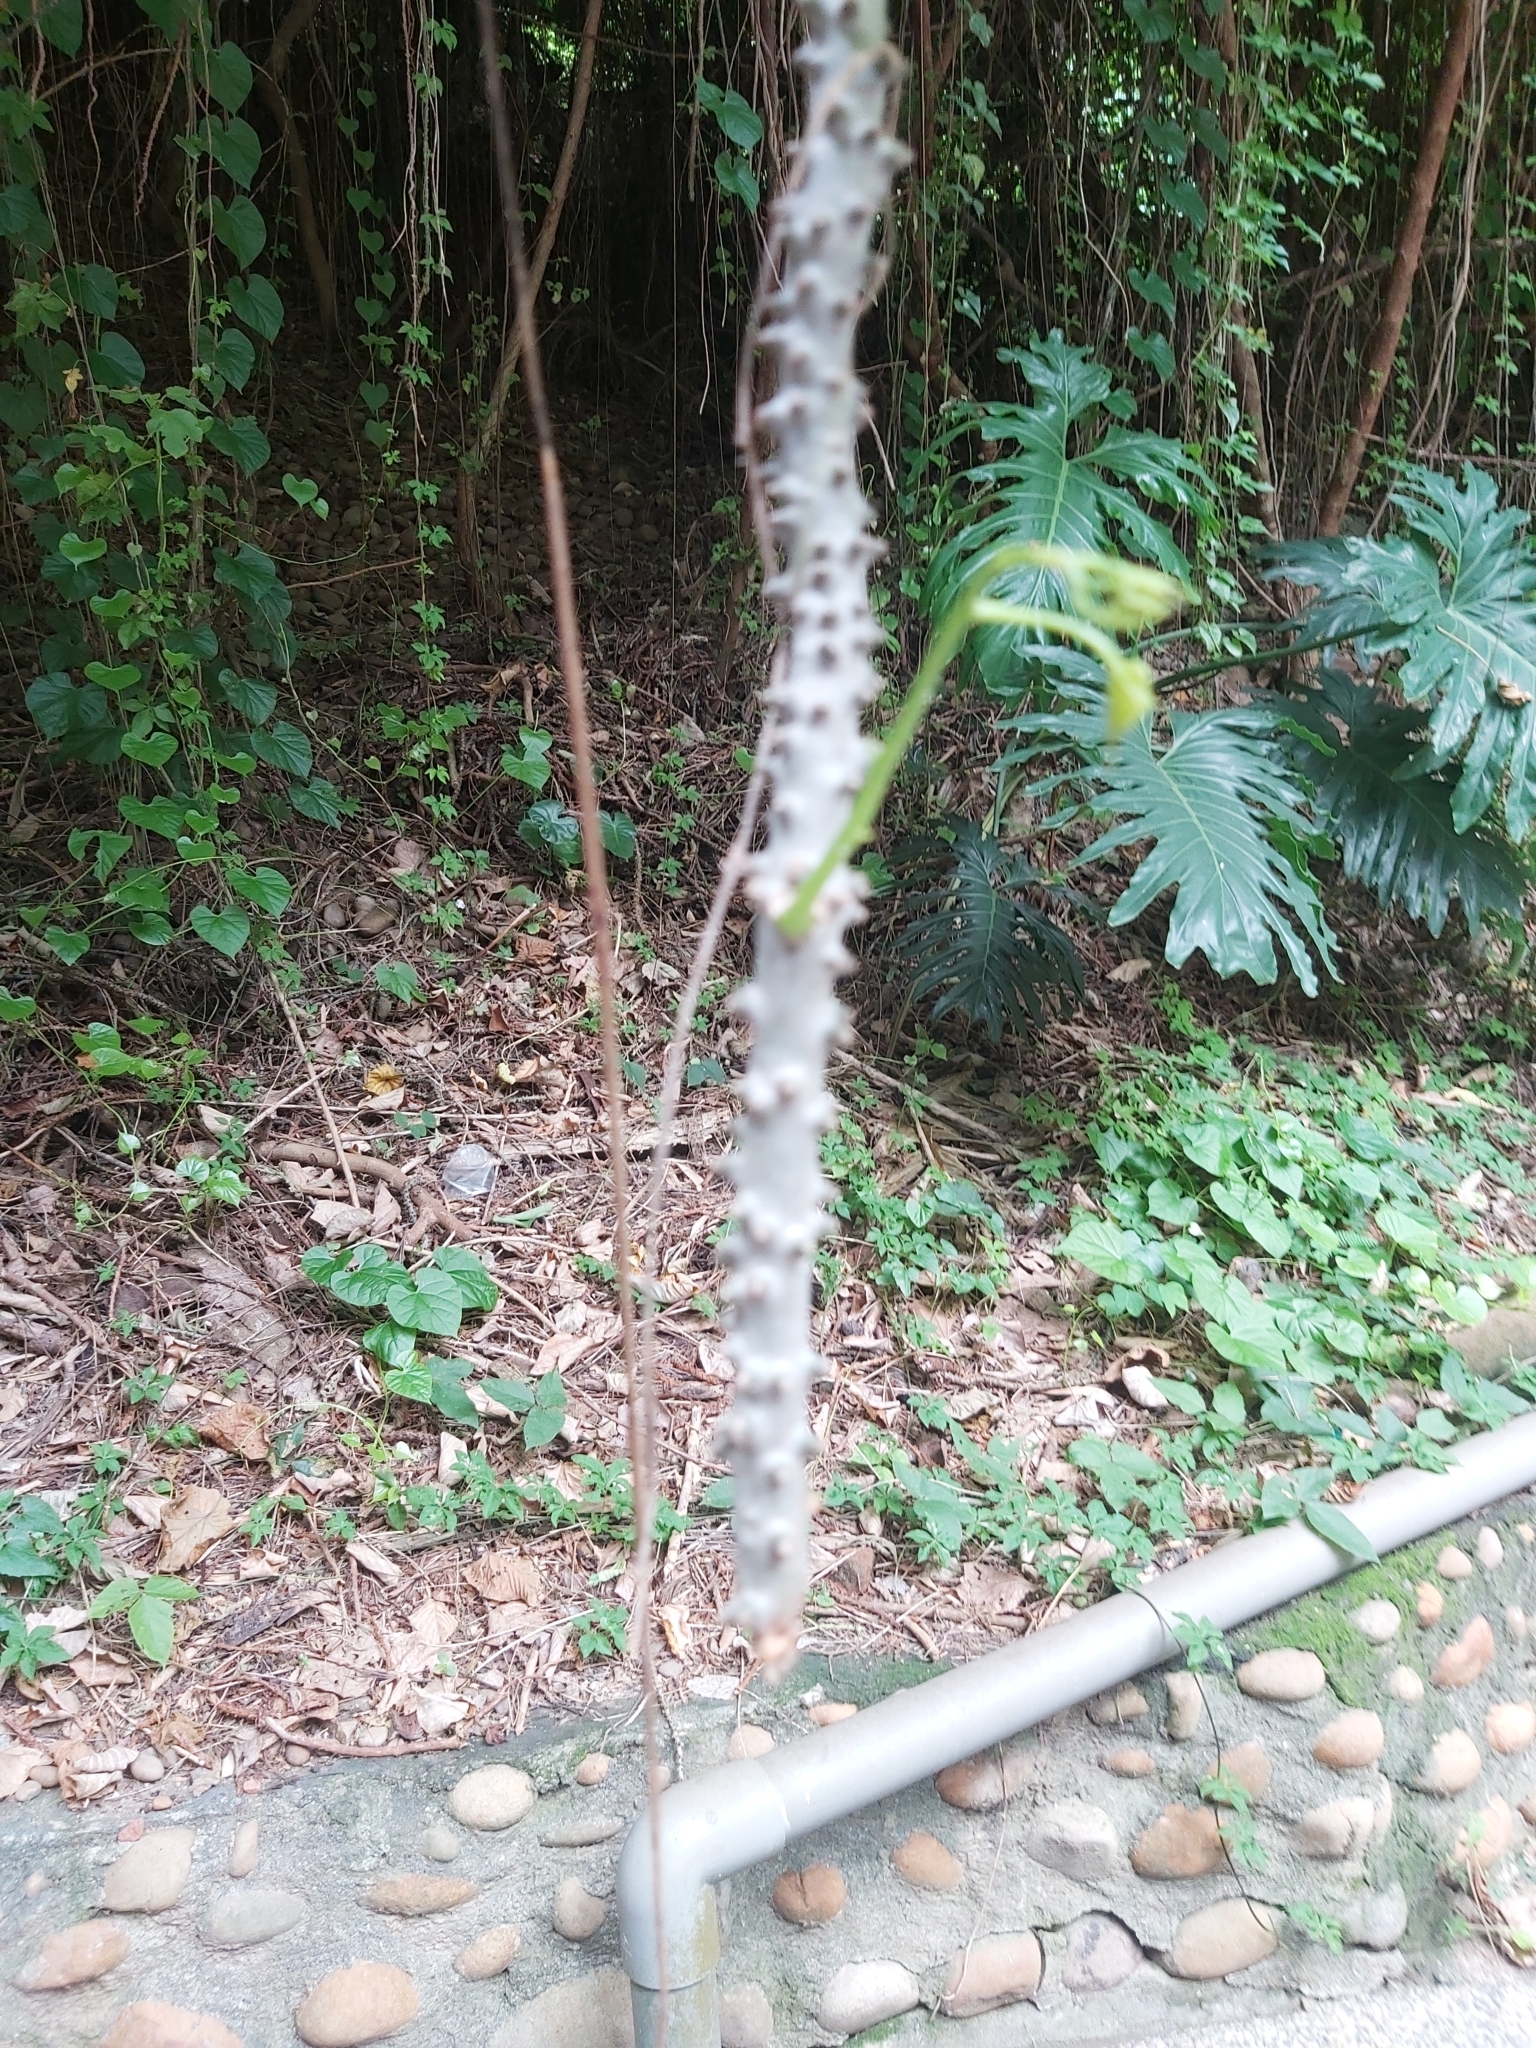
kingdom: Plantae
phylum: Tracheophyta
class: Magnoliopsida
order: Ranunculales
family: Menispermaceae
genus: Tinospora
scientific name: Tinospora crispa
